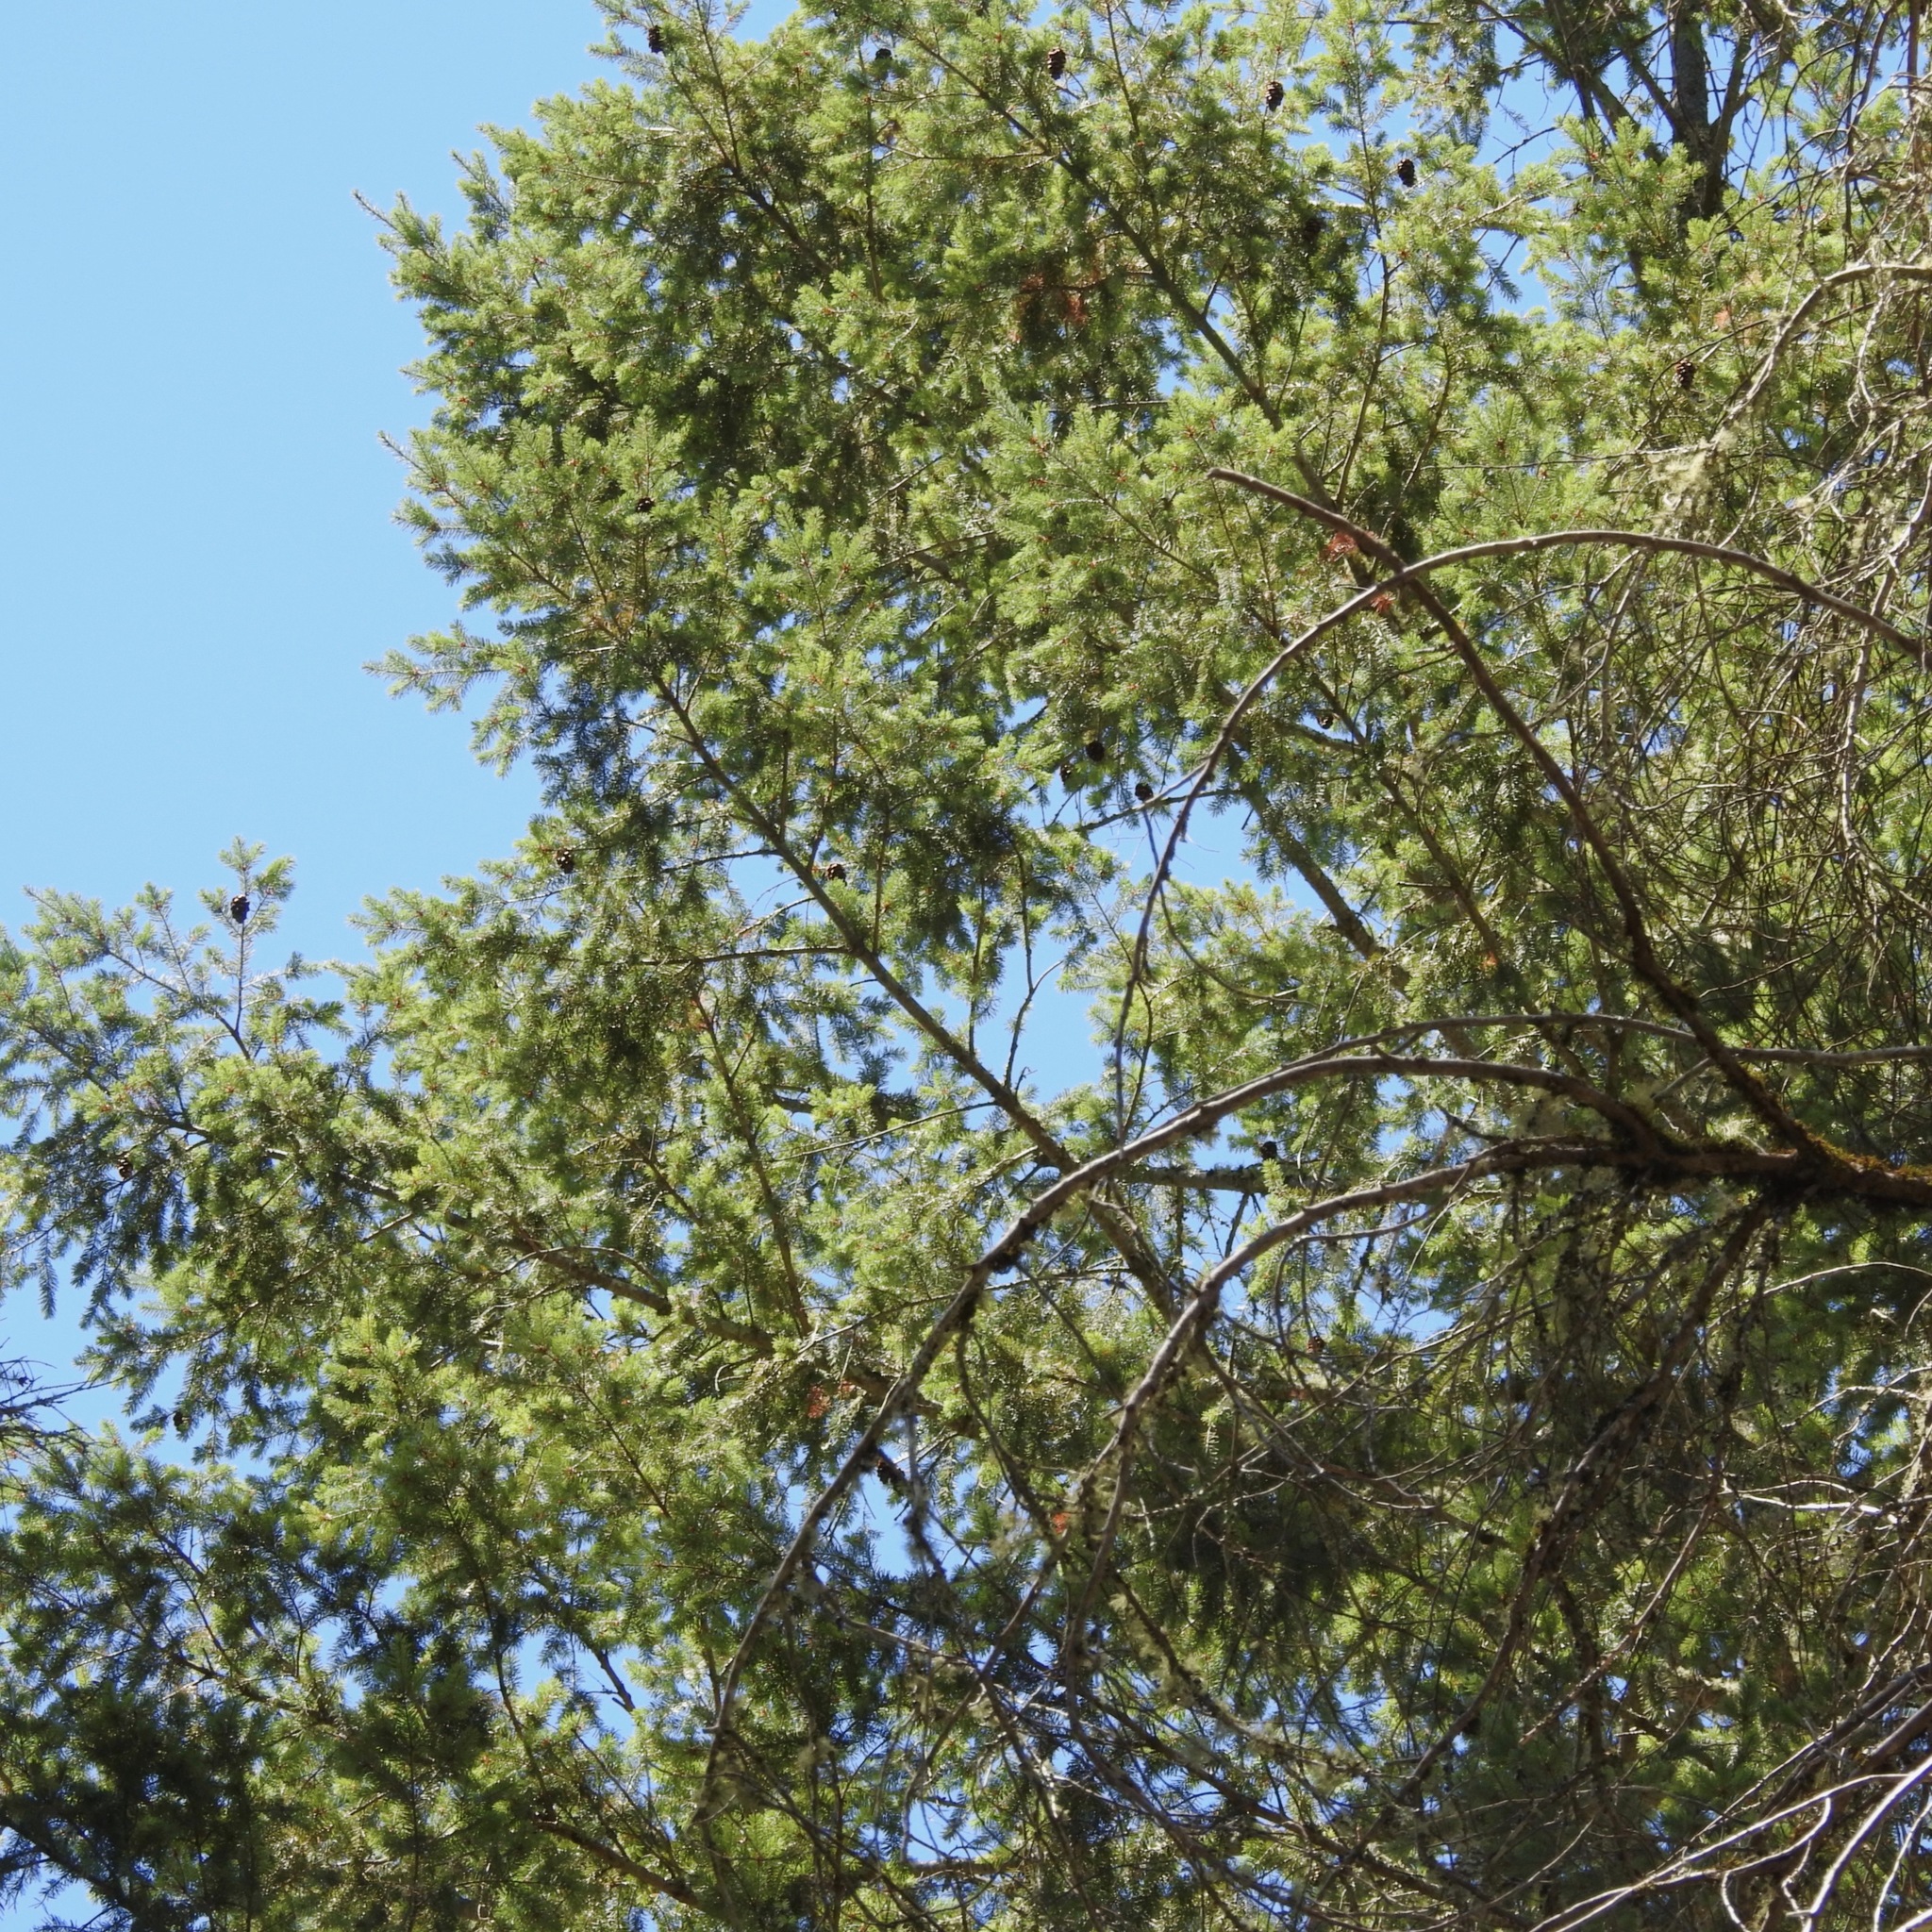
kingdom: Plantae
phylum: Tracheophyta
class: Pinopsida
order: Pinales
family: Pinaceae
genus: Pseudotsuga
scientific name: Pseudotsuga menziesii
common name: Douglas fir
